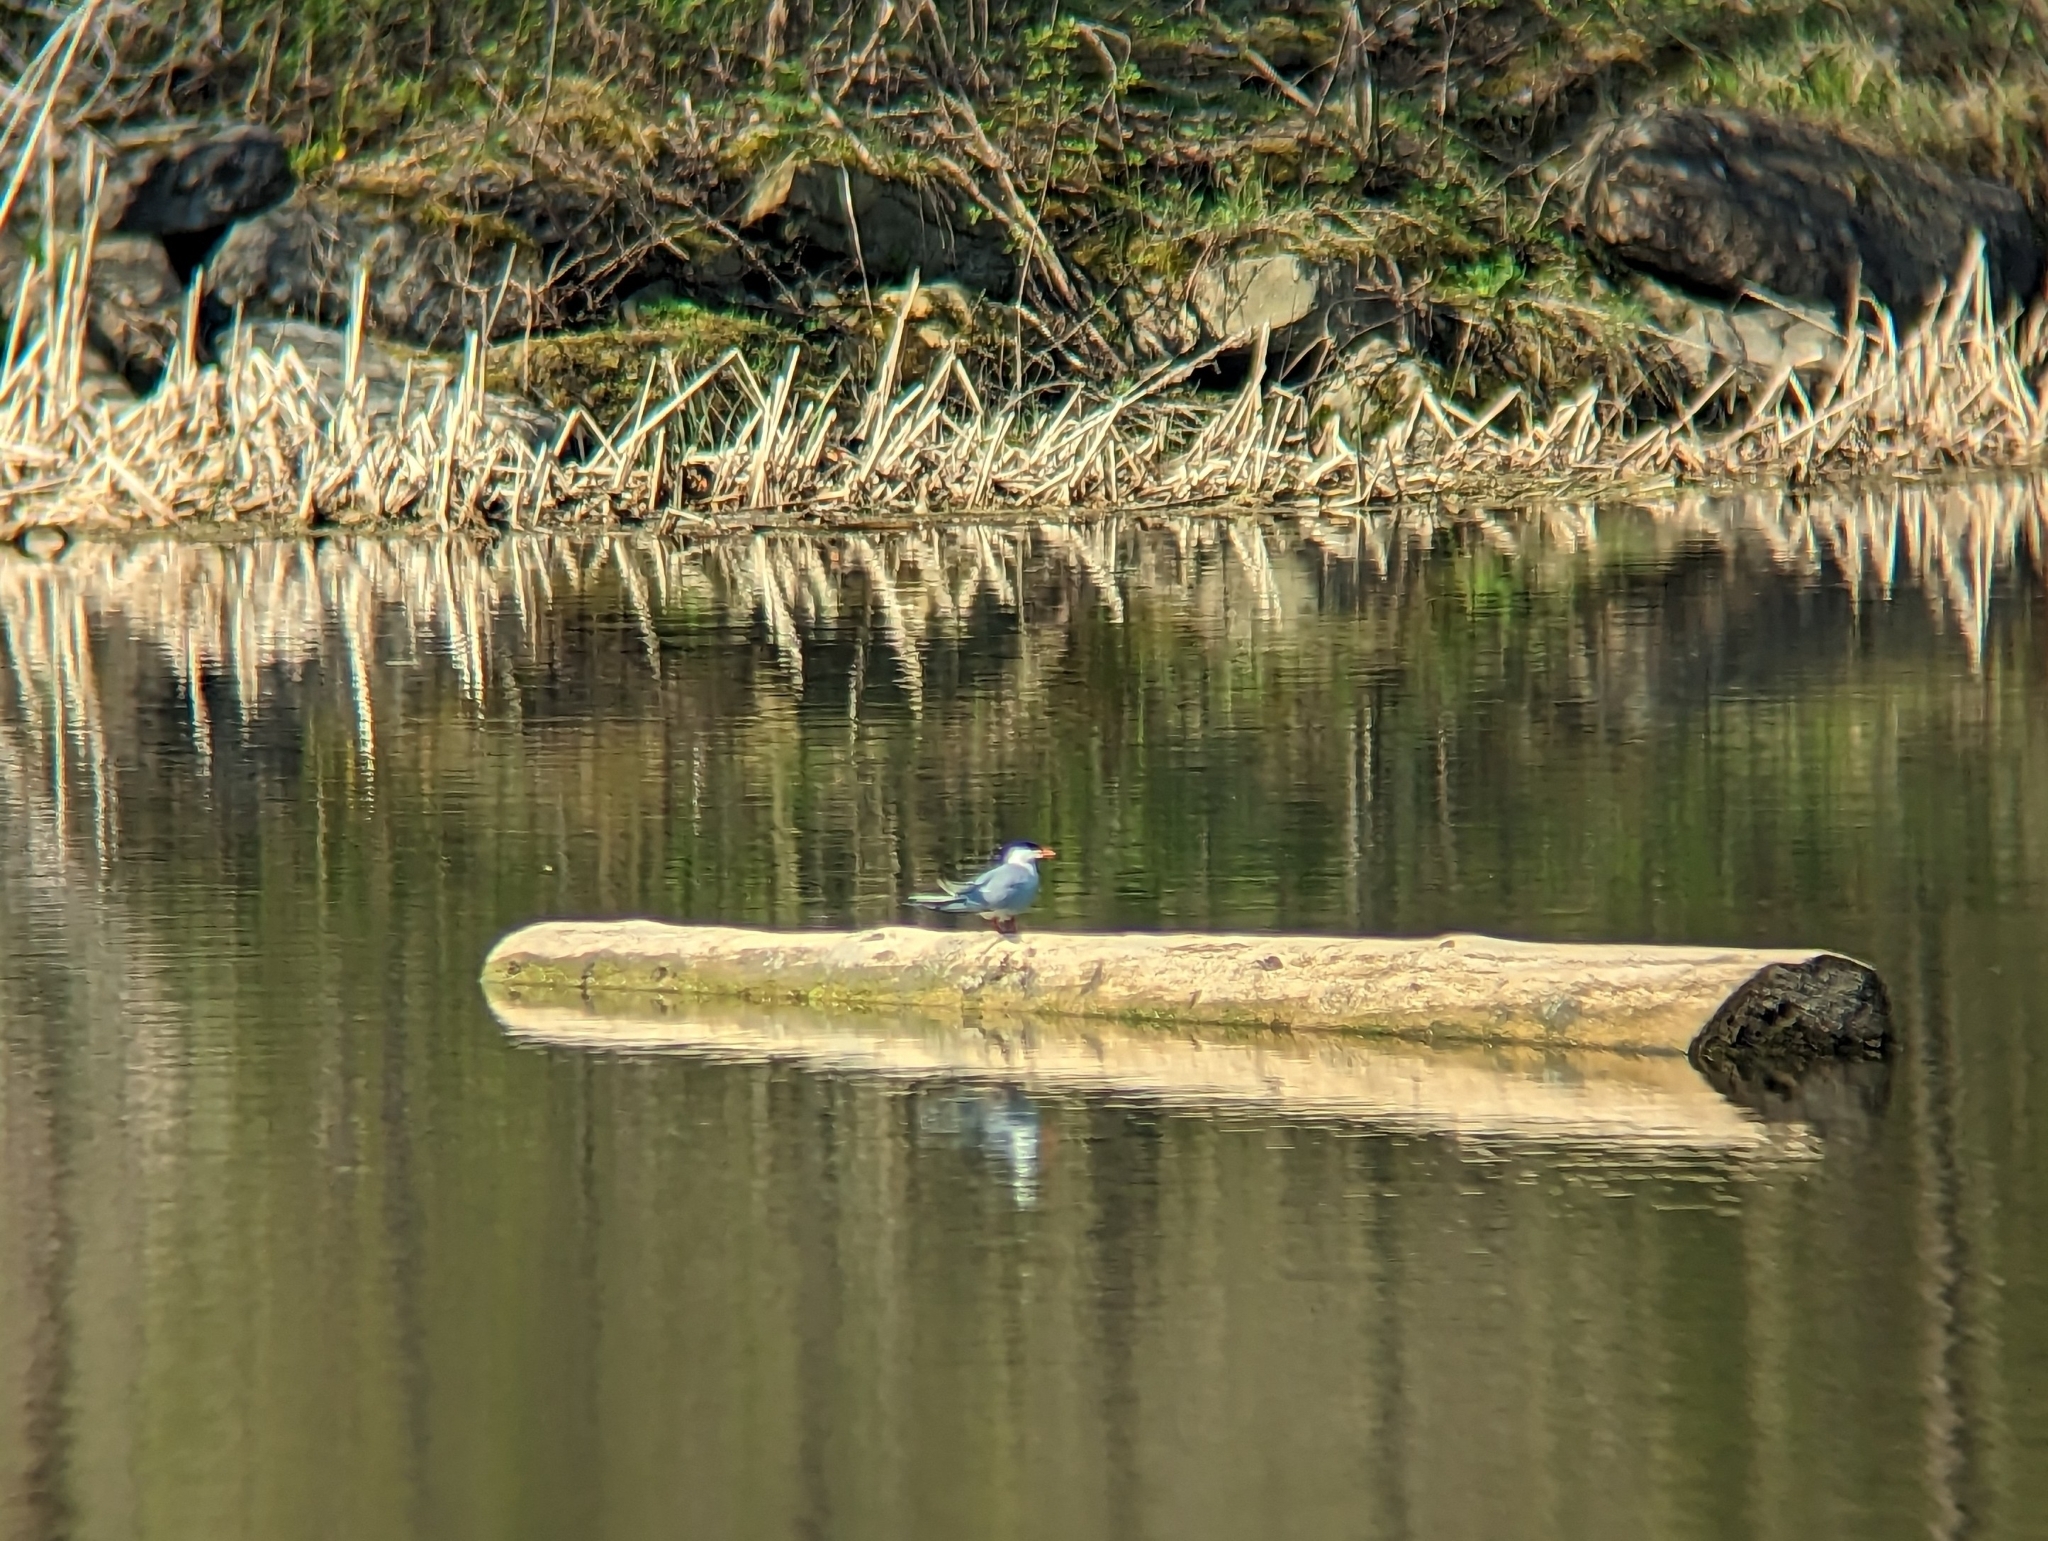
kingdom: Animalia
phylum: Chordata
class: Aves
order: Charadriiformes
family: Laridae
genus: Sterna
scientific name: Sterna hirundo
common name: Common tern
